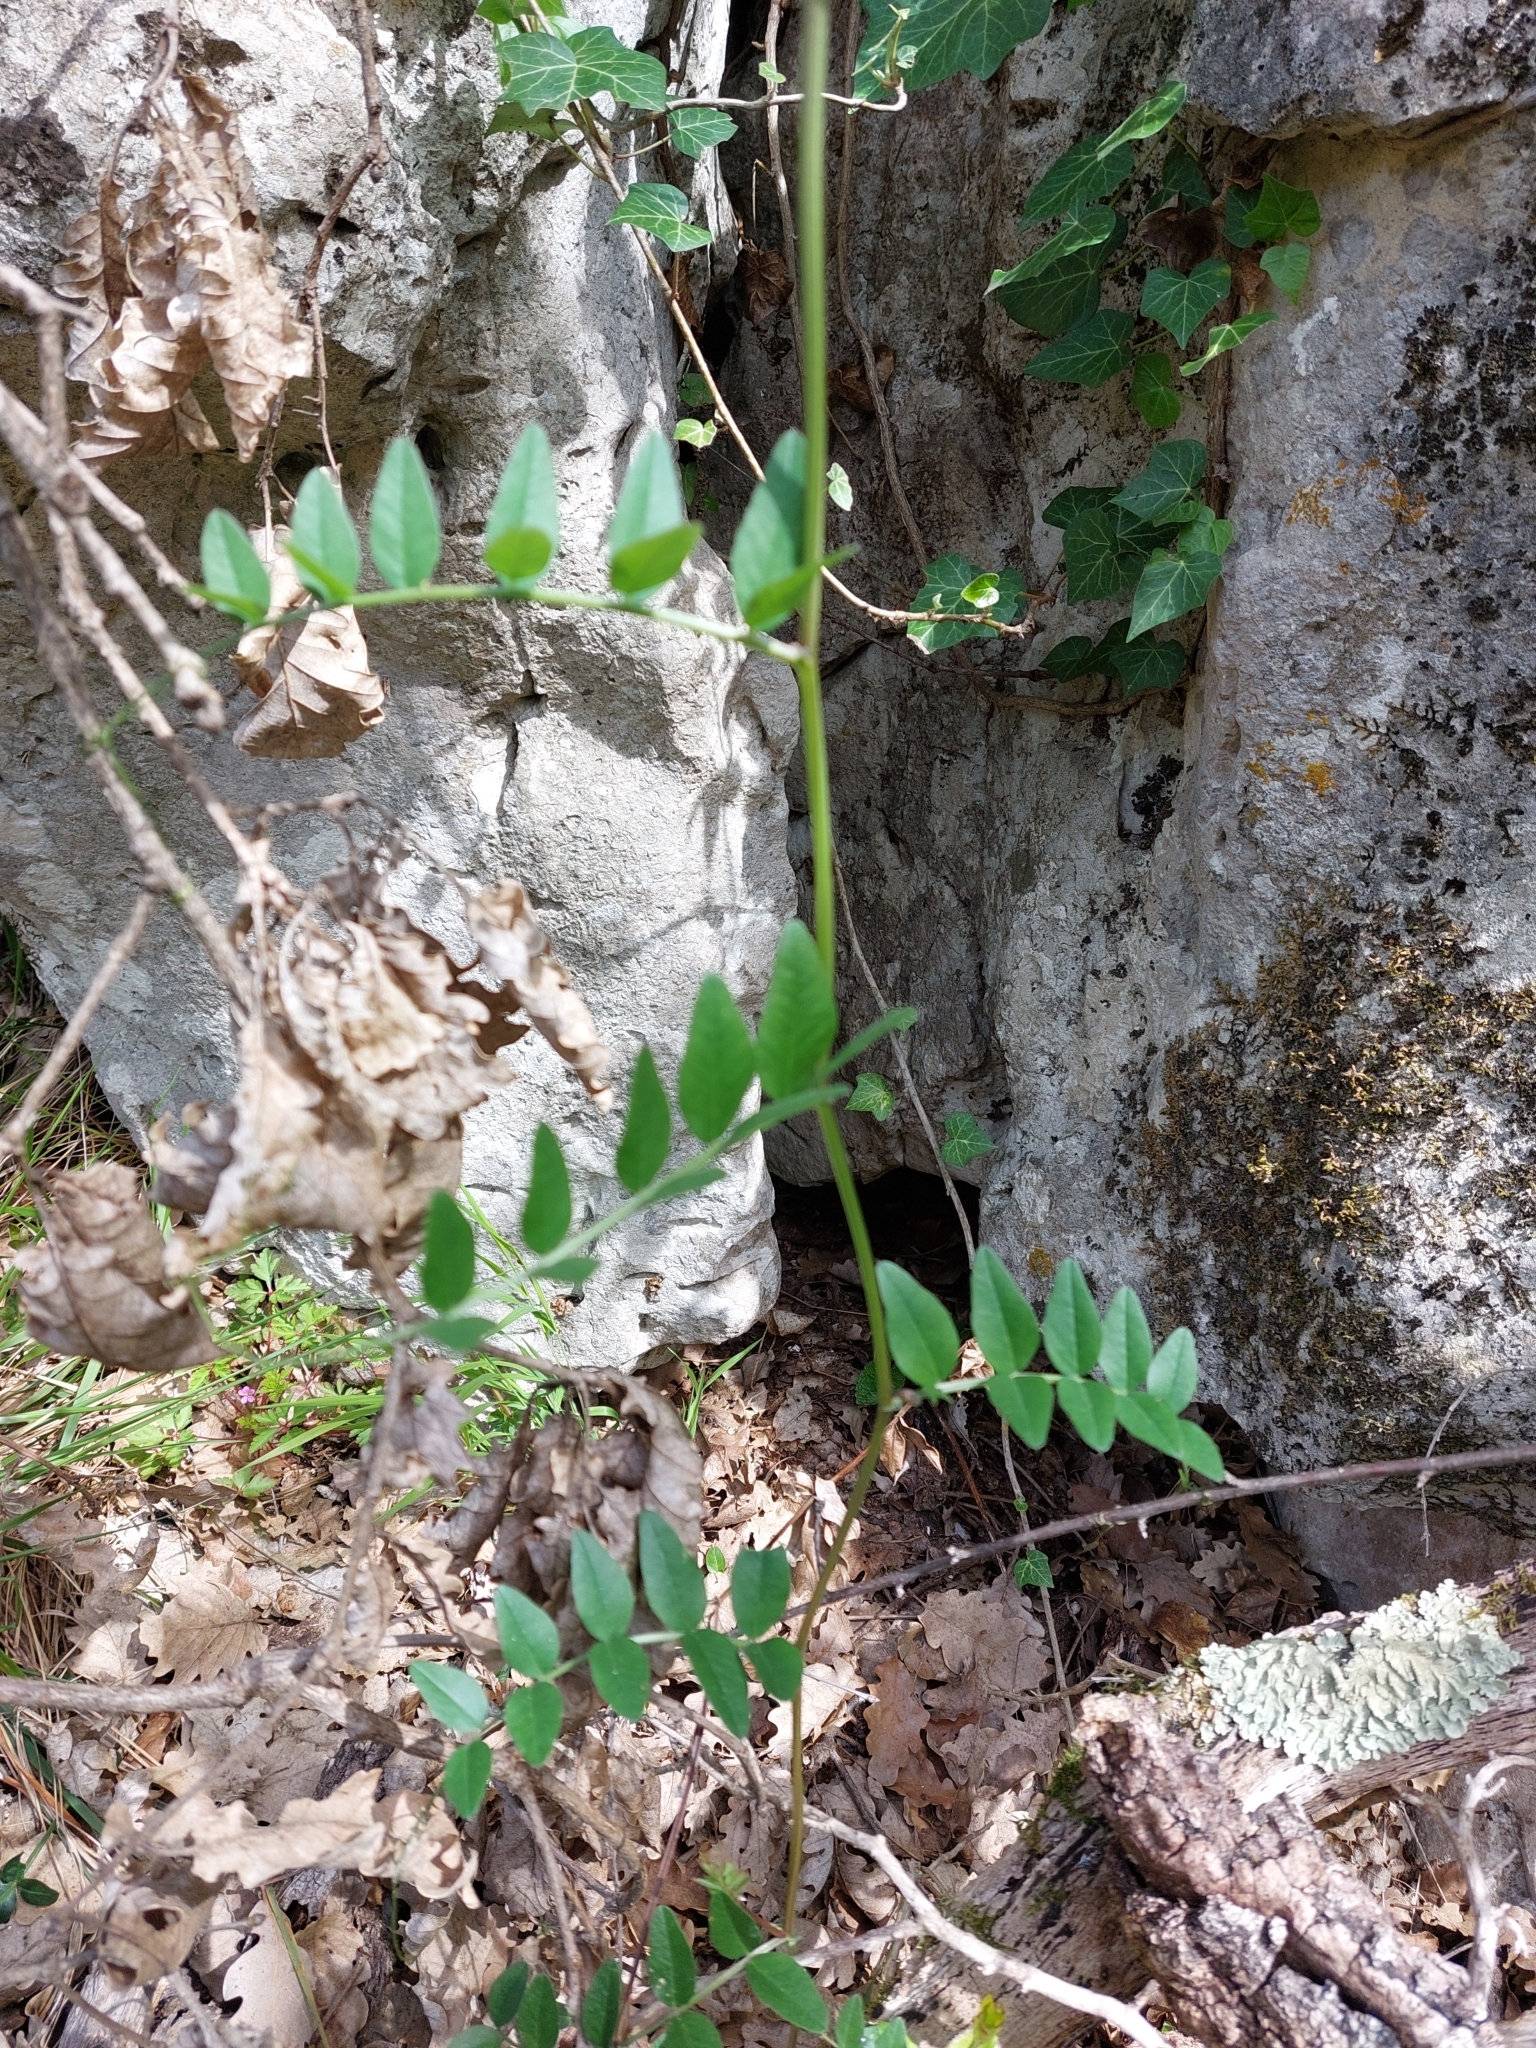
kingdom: Plantae
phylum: Tracheophyta
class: Magnoliopsida
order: Fabales
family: Fabaceae
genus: Vicia
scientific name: Vicia sepium
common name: Bush vetch
